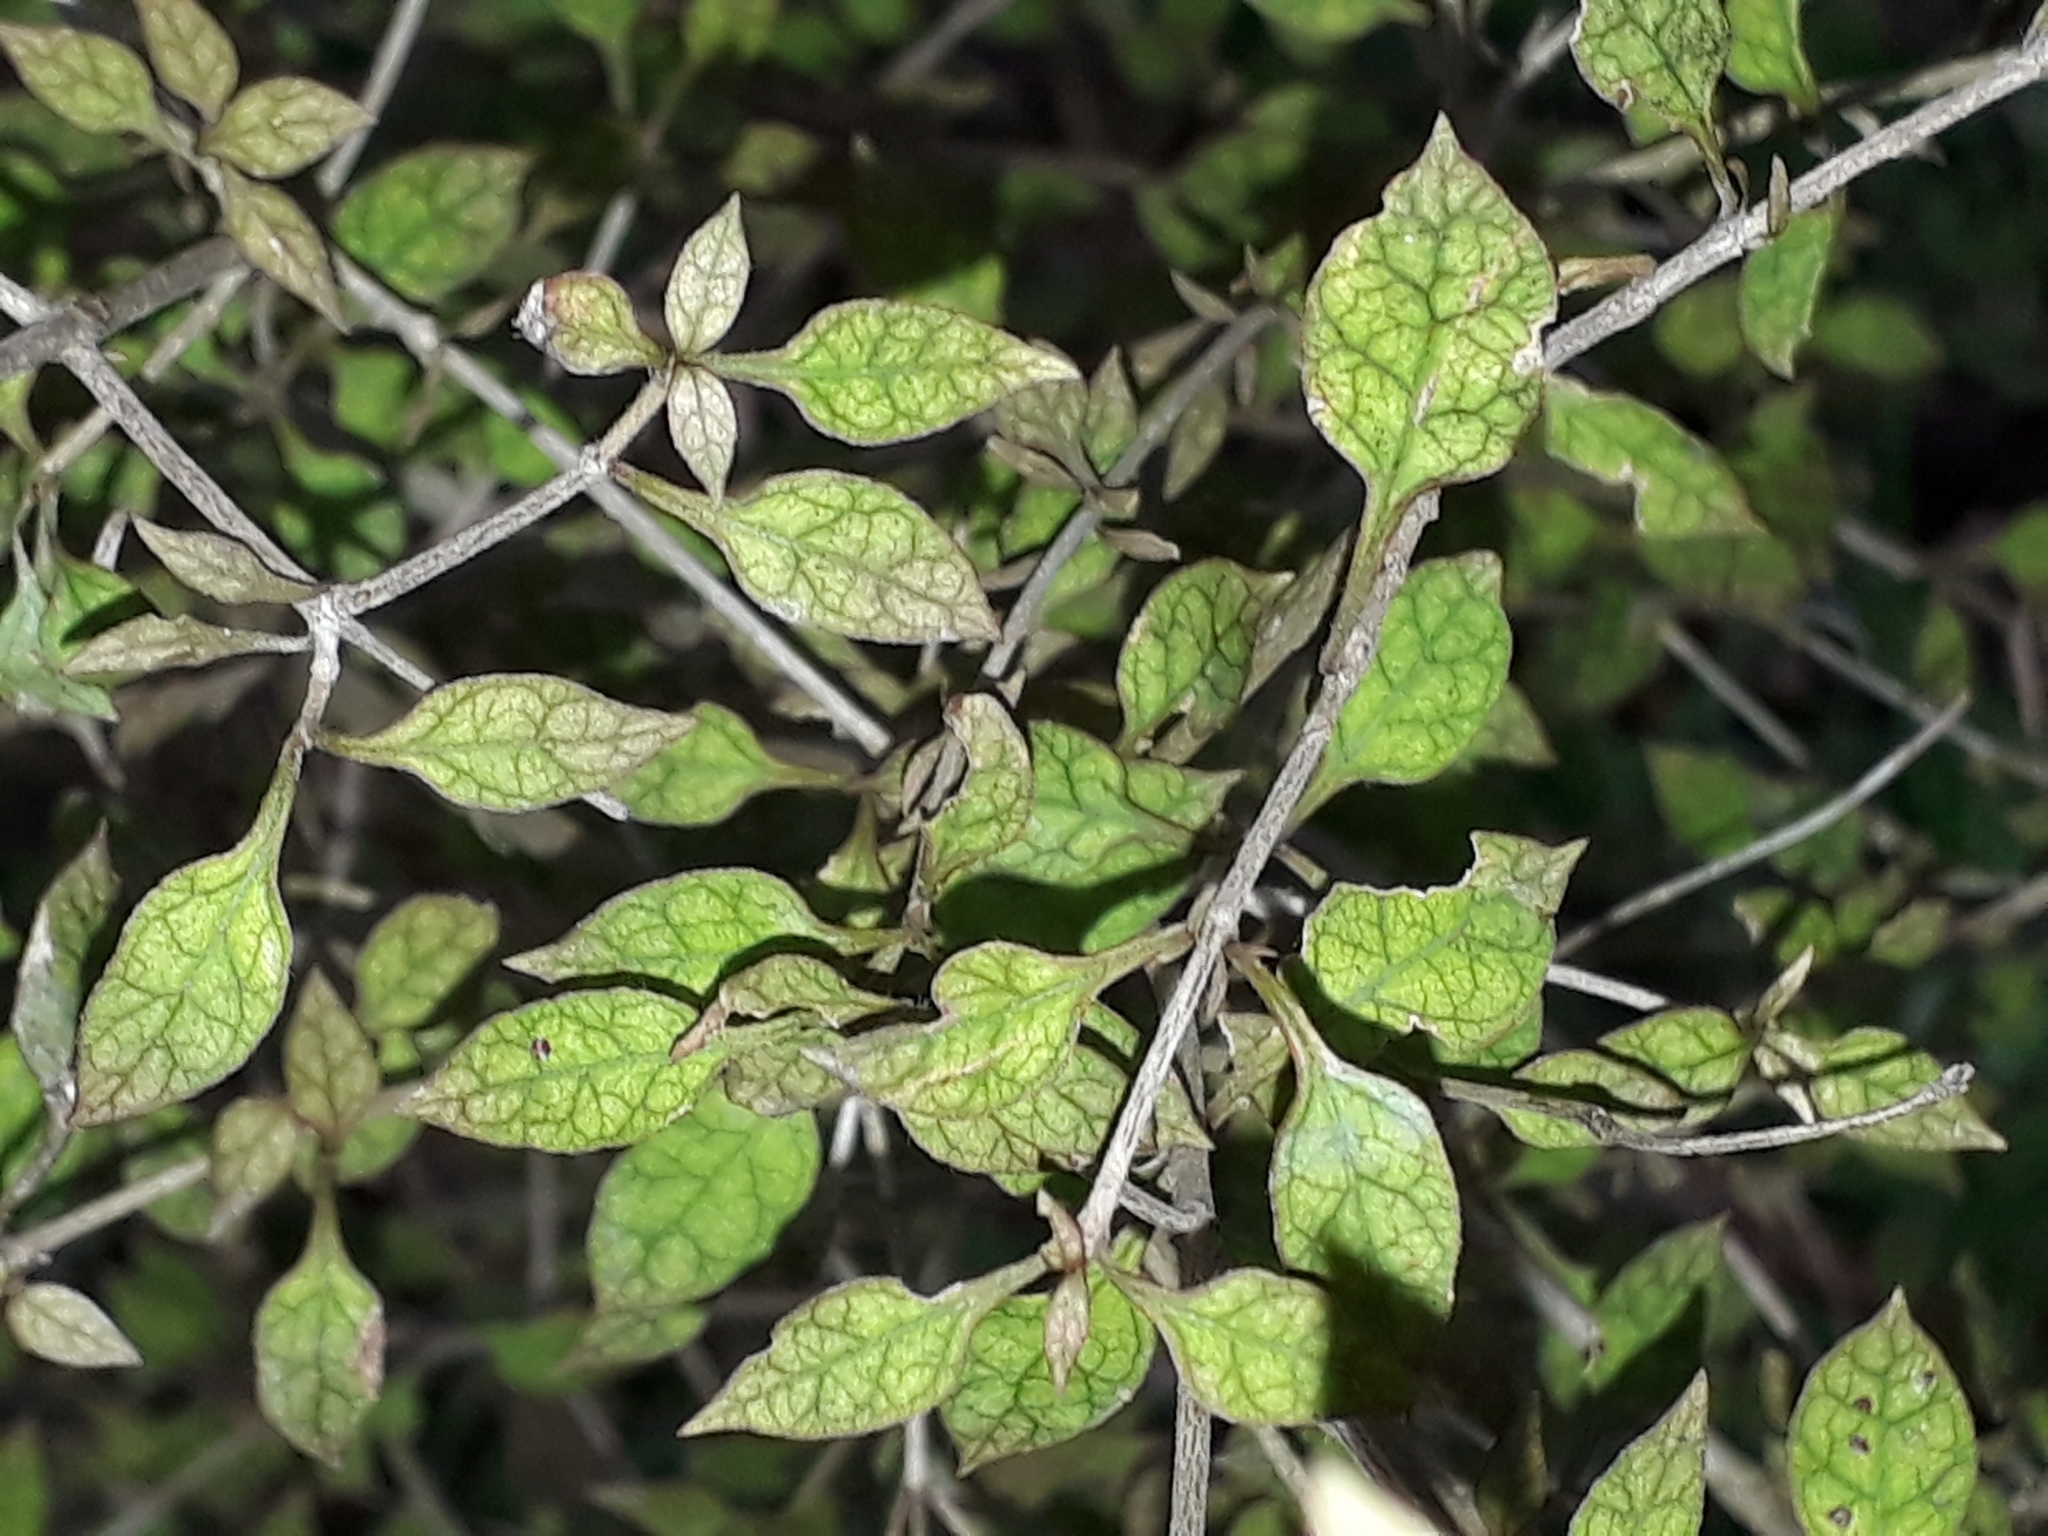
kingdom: Plantae
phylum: Tracheophyta
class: Magnoliopsida
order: Gentianales
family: Rubiaceae
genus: Coprosma
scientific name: Coprosma areolata
